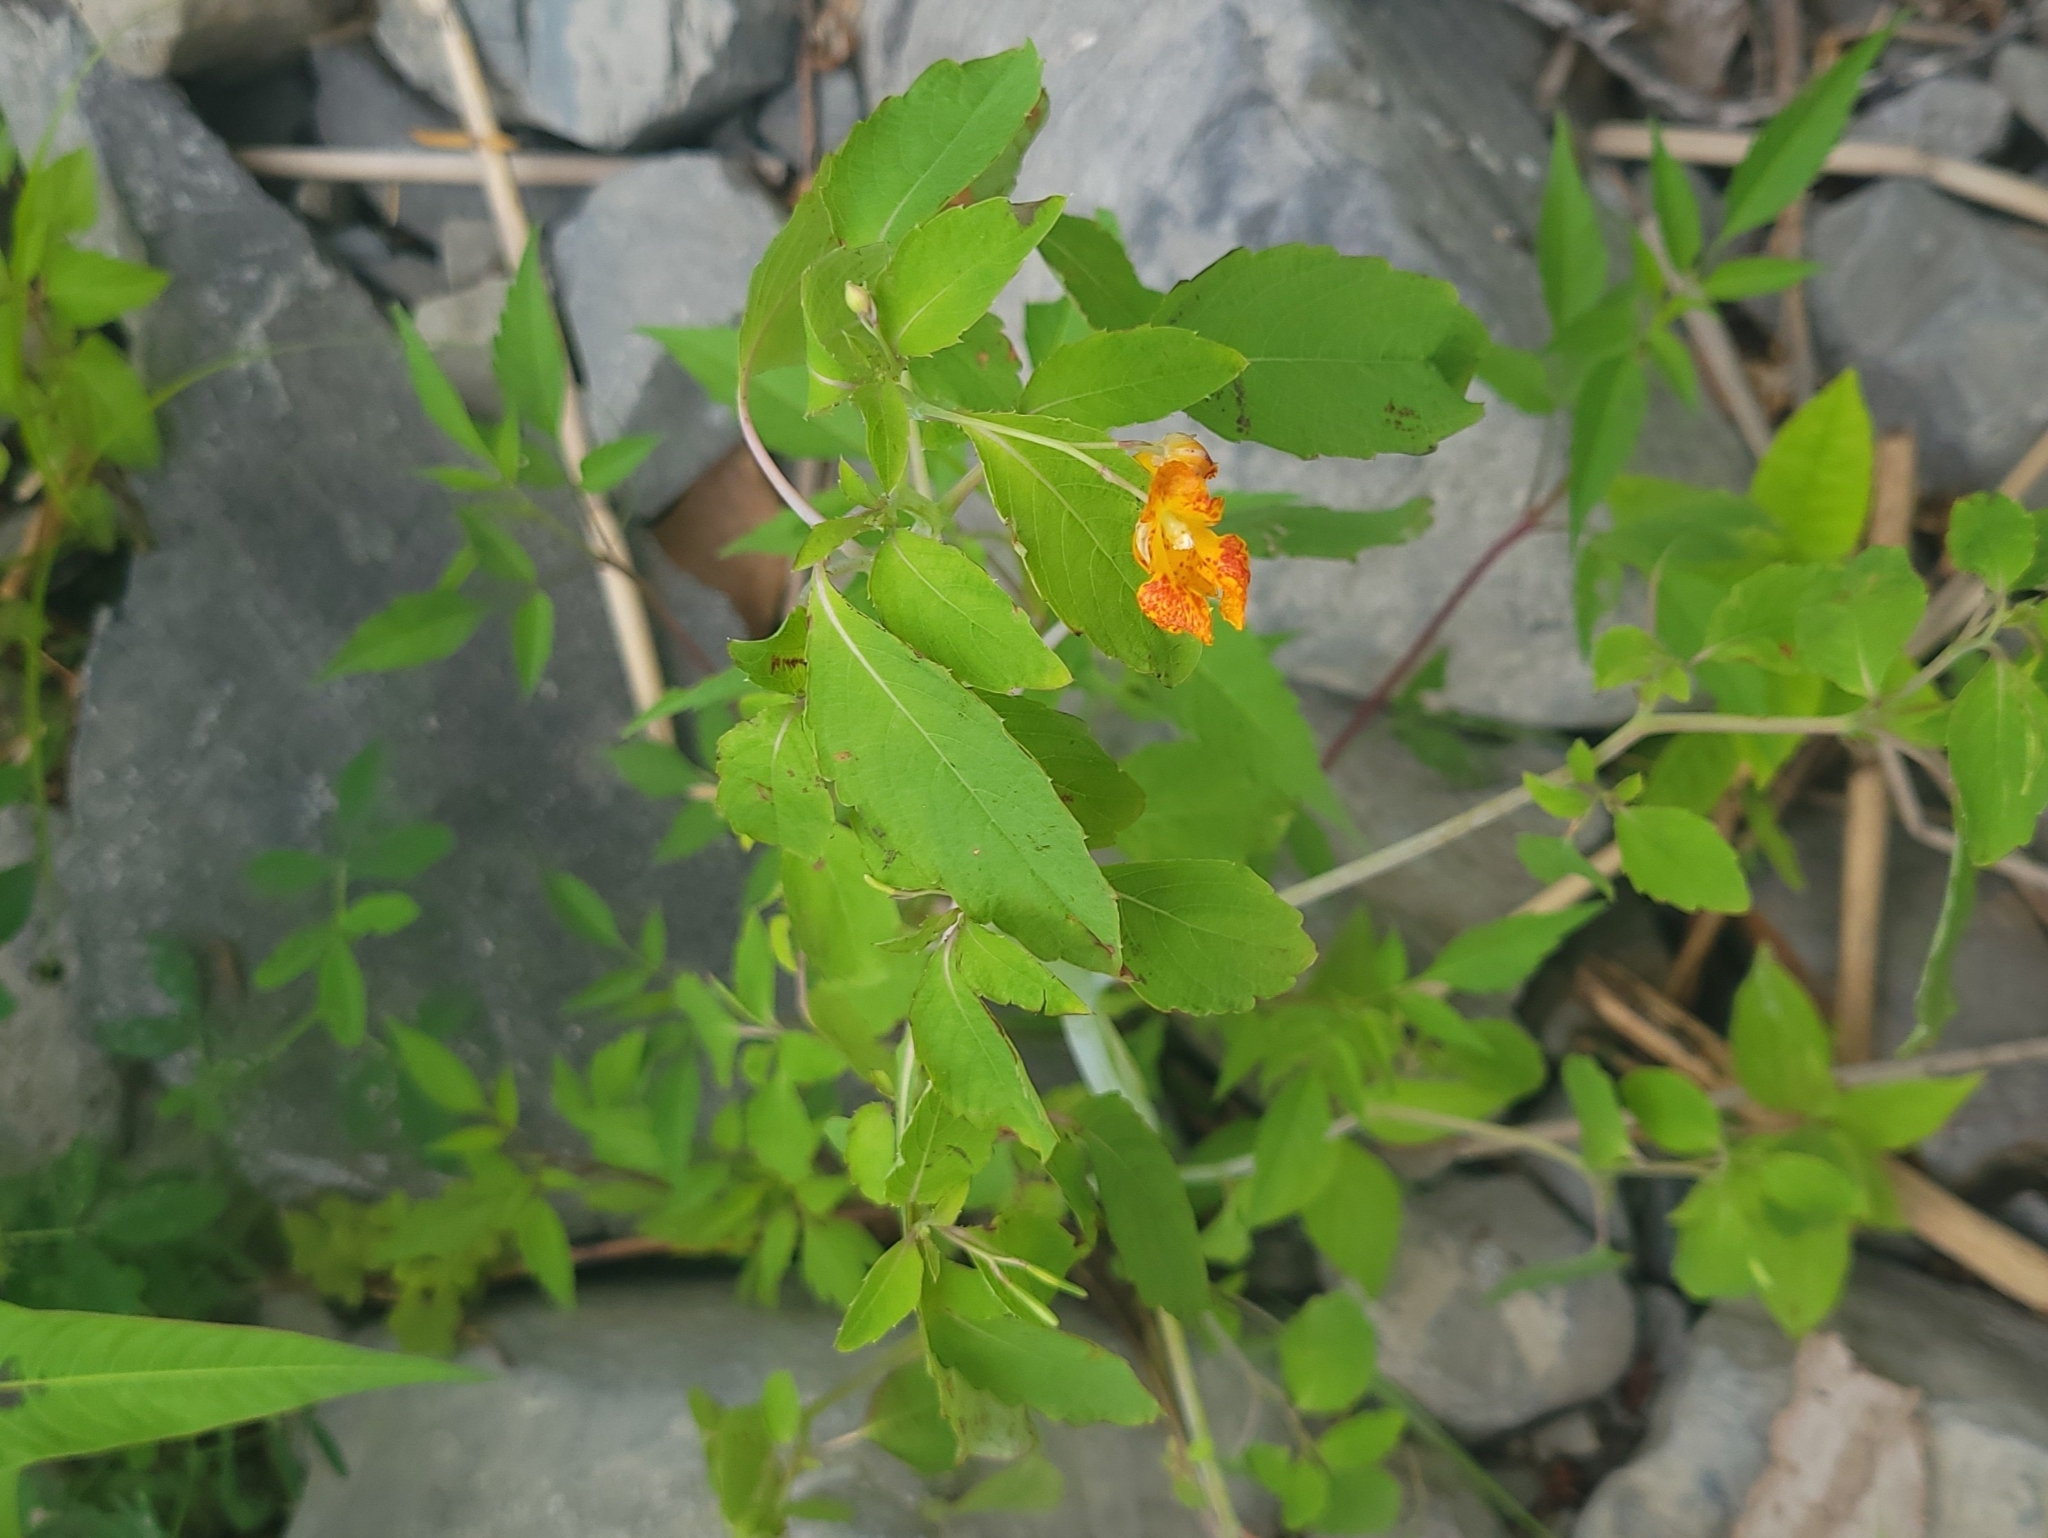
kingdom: Plantae
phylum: Tracheophyta
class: Magnoliopsida
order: Ericales
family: Balsaminaceae
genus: Impatiens
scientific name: Impatiens capensis
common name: Orange balsam
